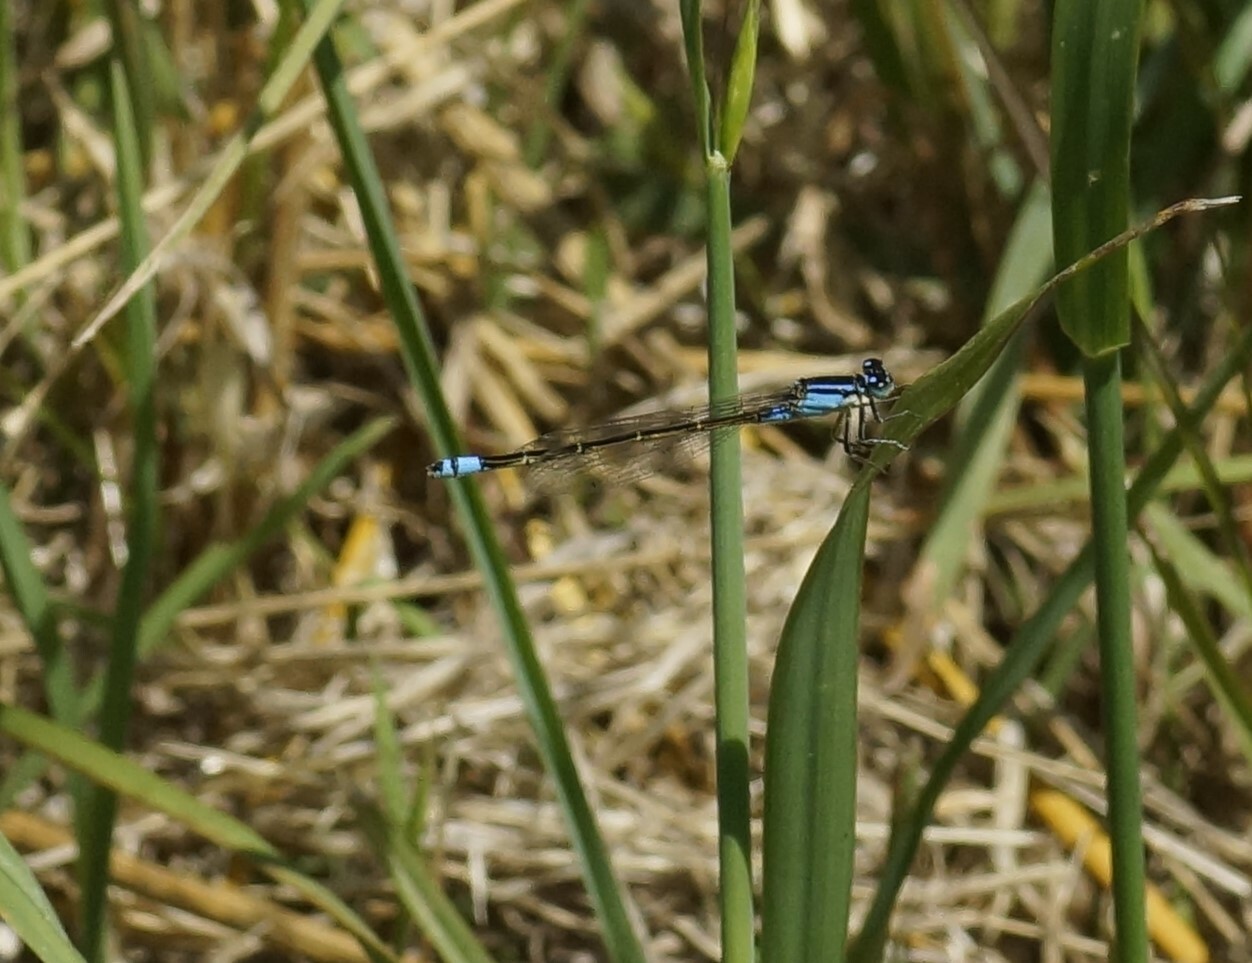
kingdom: Animalia
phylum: Arthropoda
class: Insecta
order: Odonata
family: Coenagrionidae
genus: Ischnura
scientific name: Ischnura heterosticta
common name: Common bluetail
